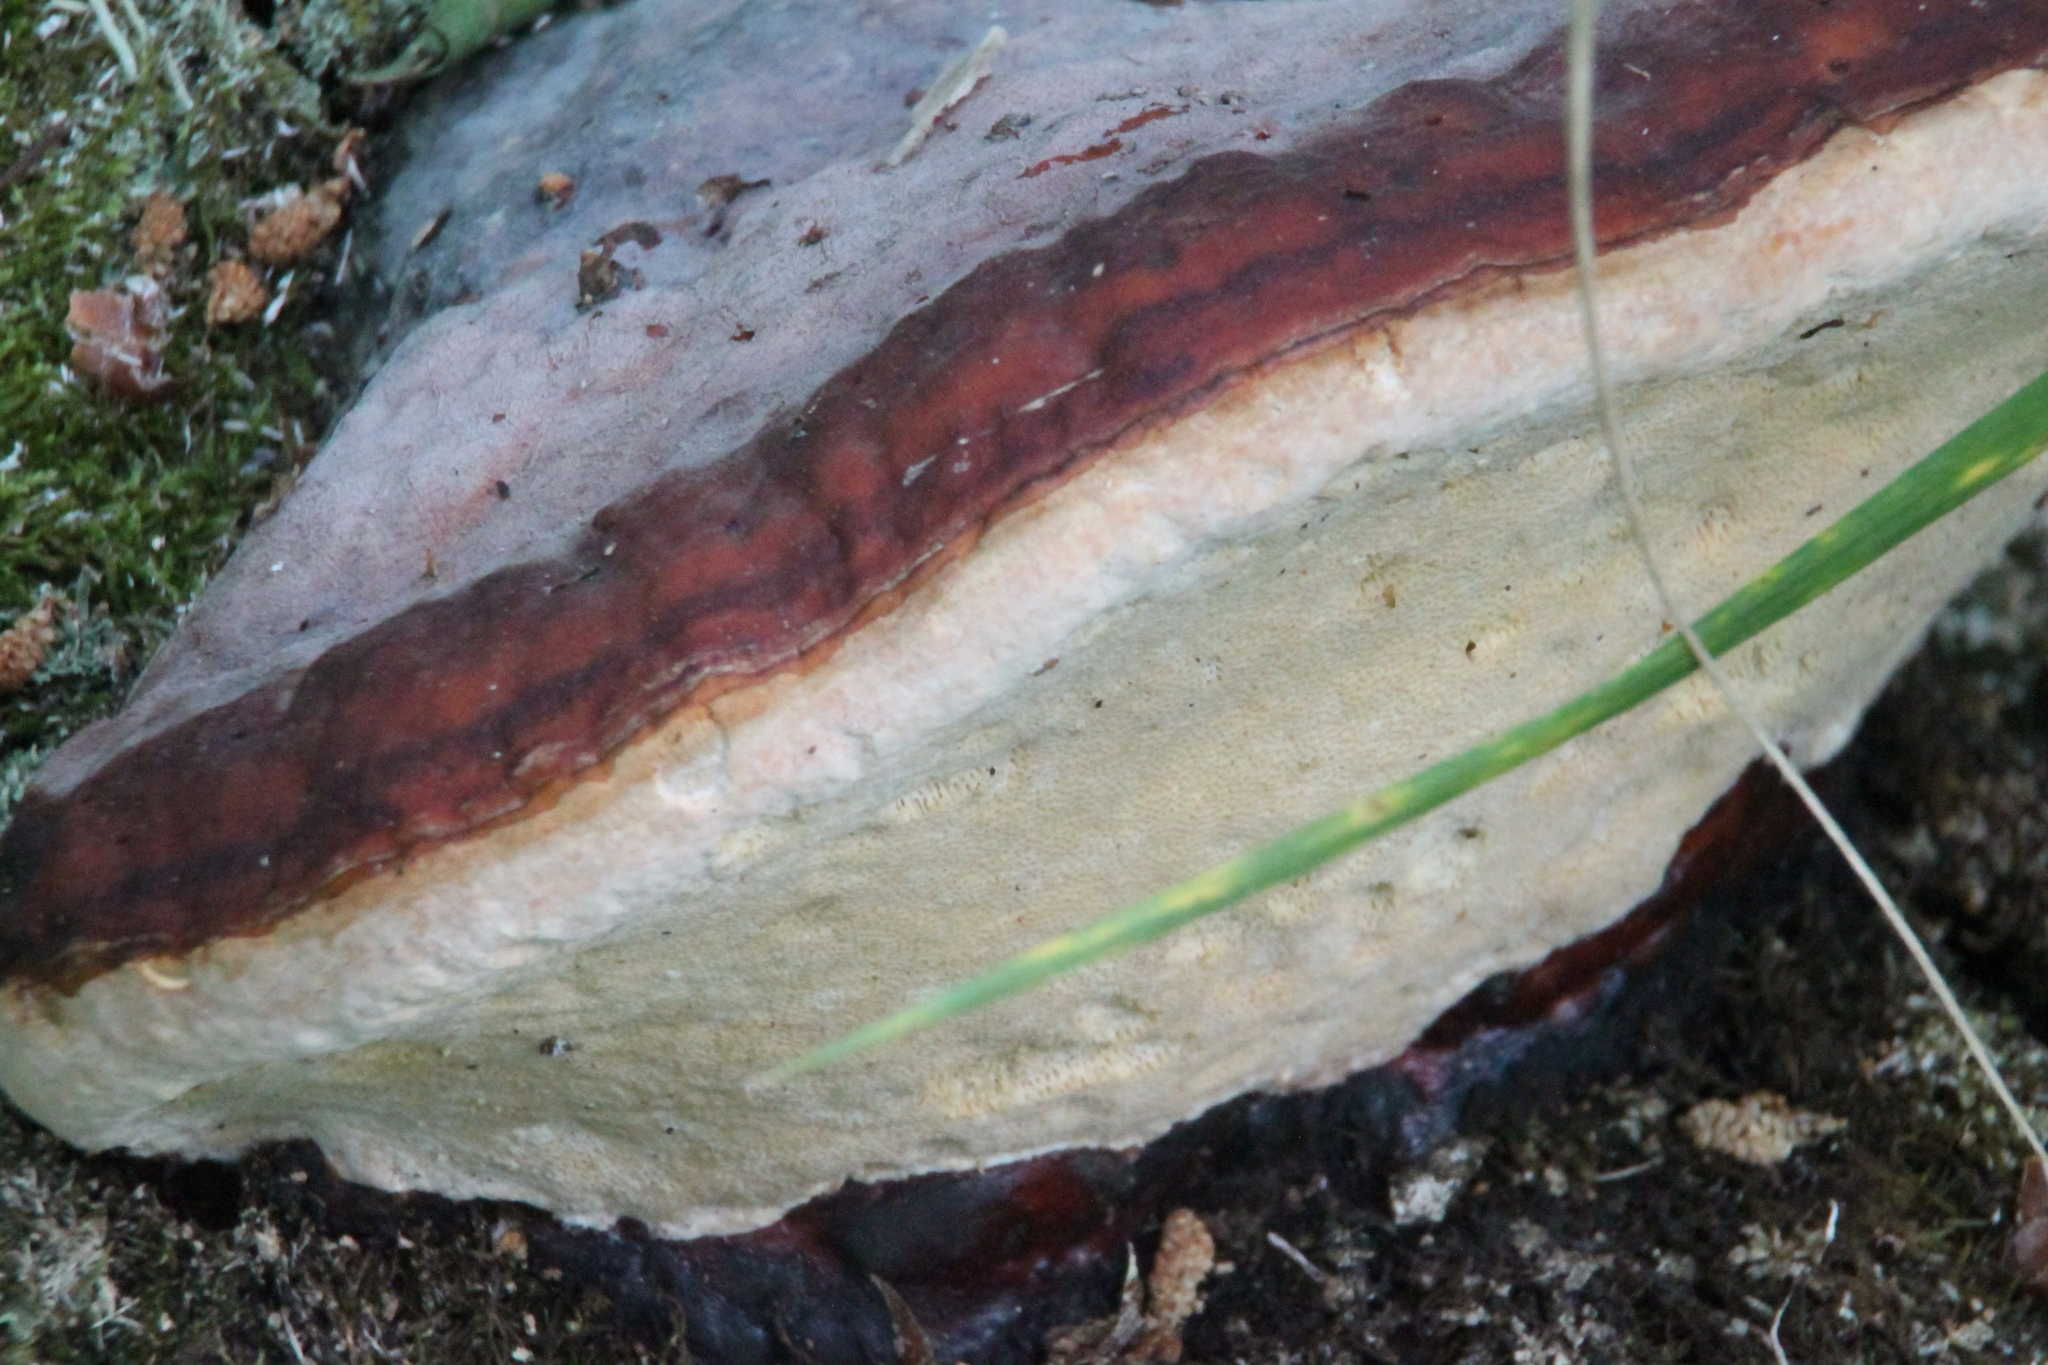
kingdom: Fungi
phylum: Basidiomycota
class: Agaricomycetes
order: Polyporales
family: Fomitopsidaceae
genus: Fomitopsis
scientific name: Fomitopsis pinicola
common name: Red-belted bracket
